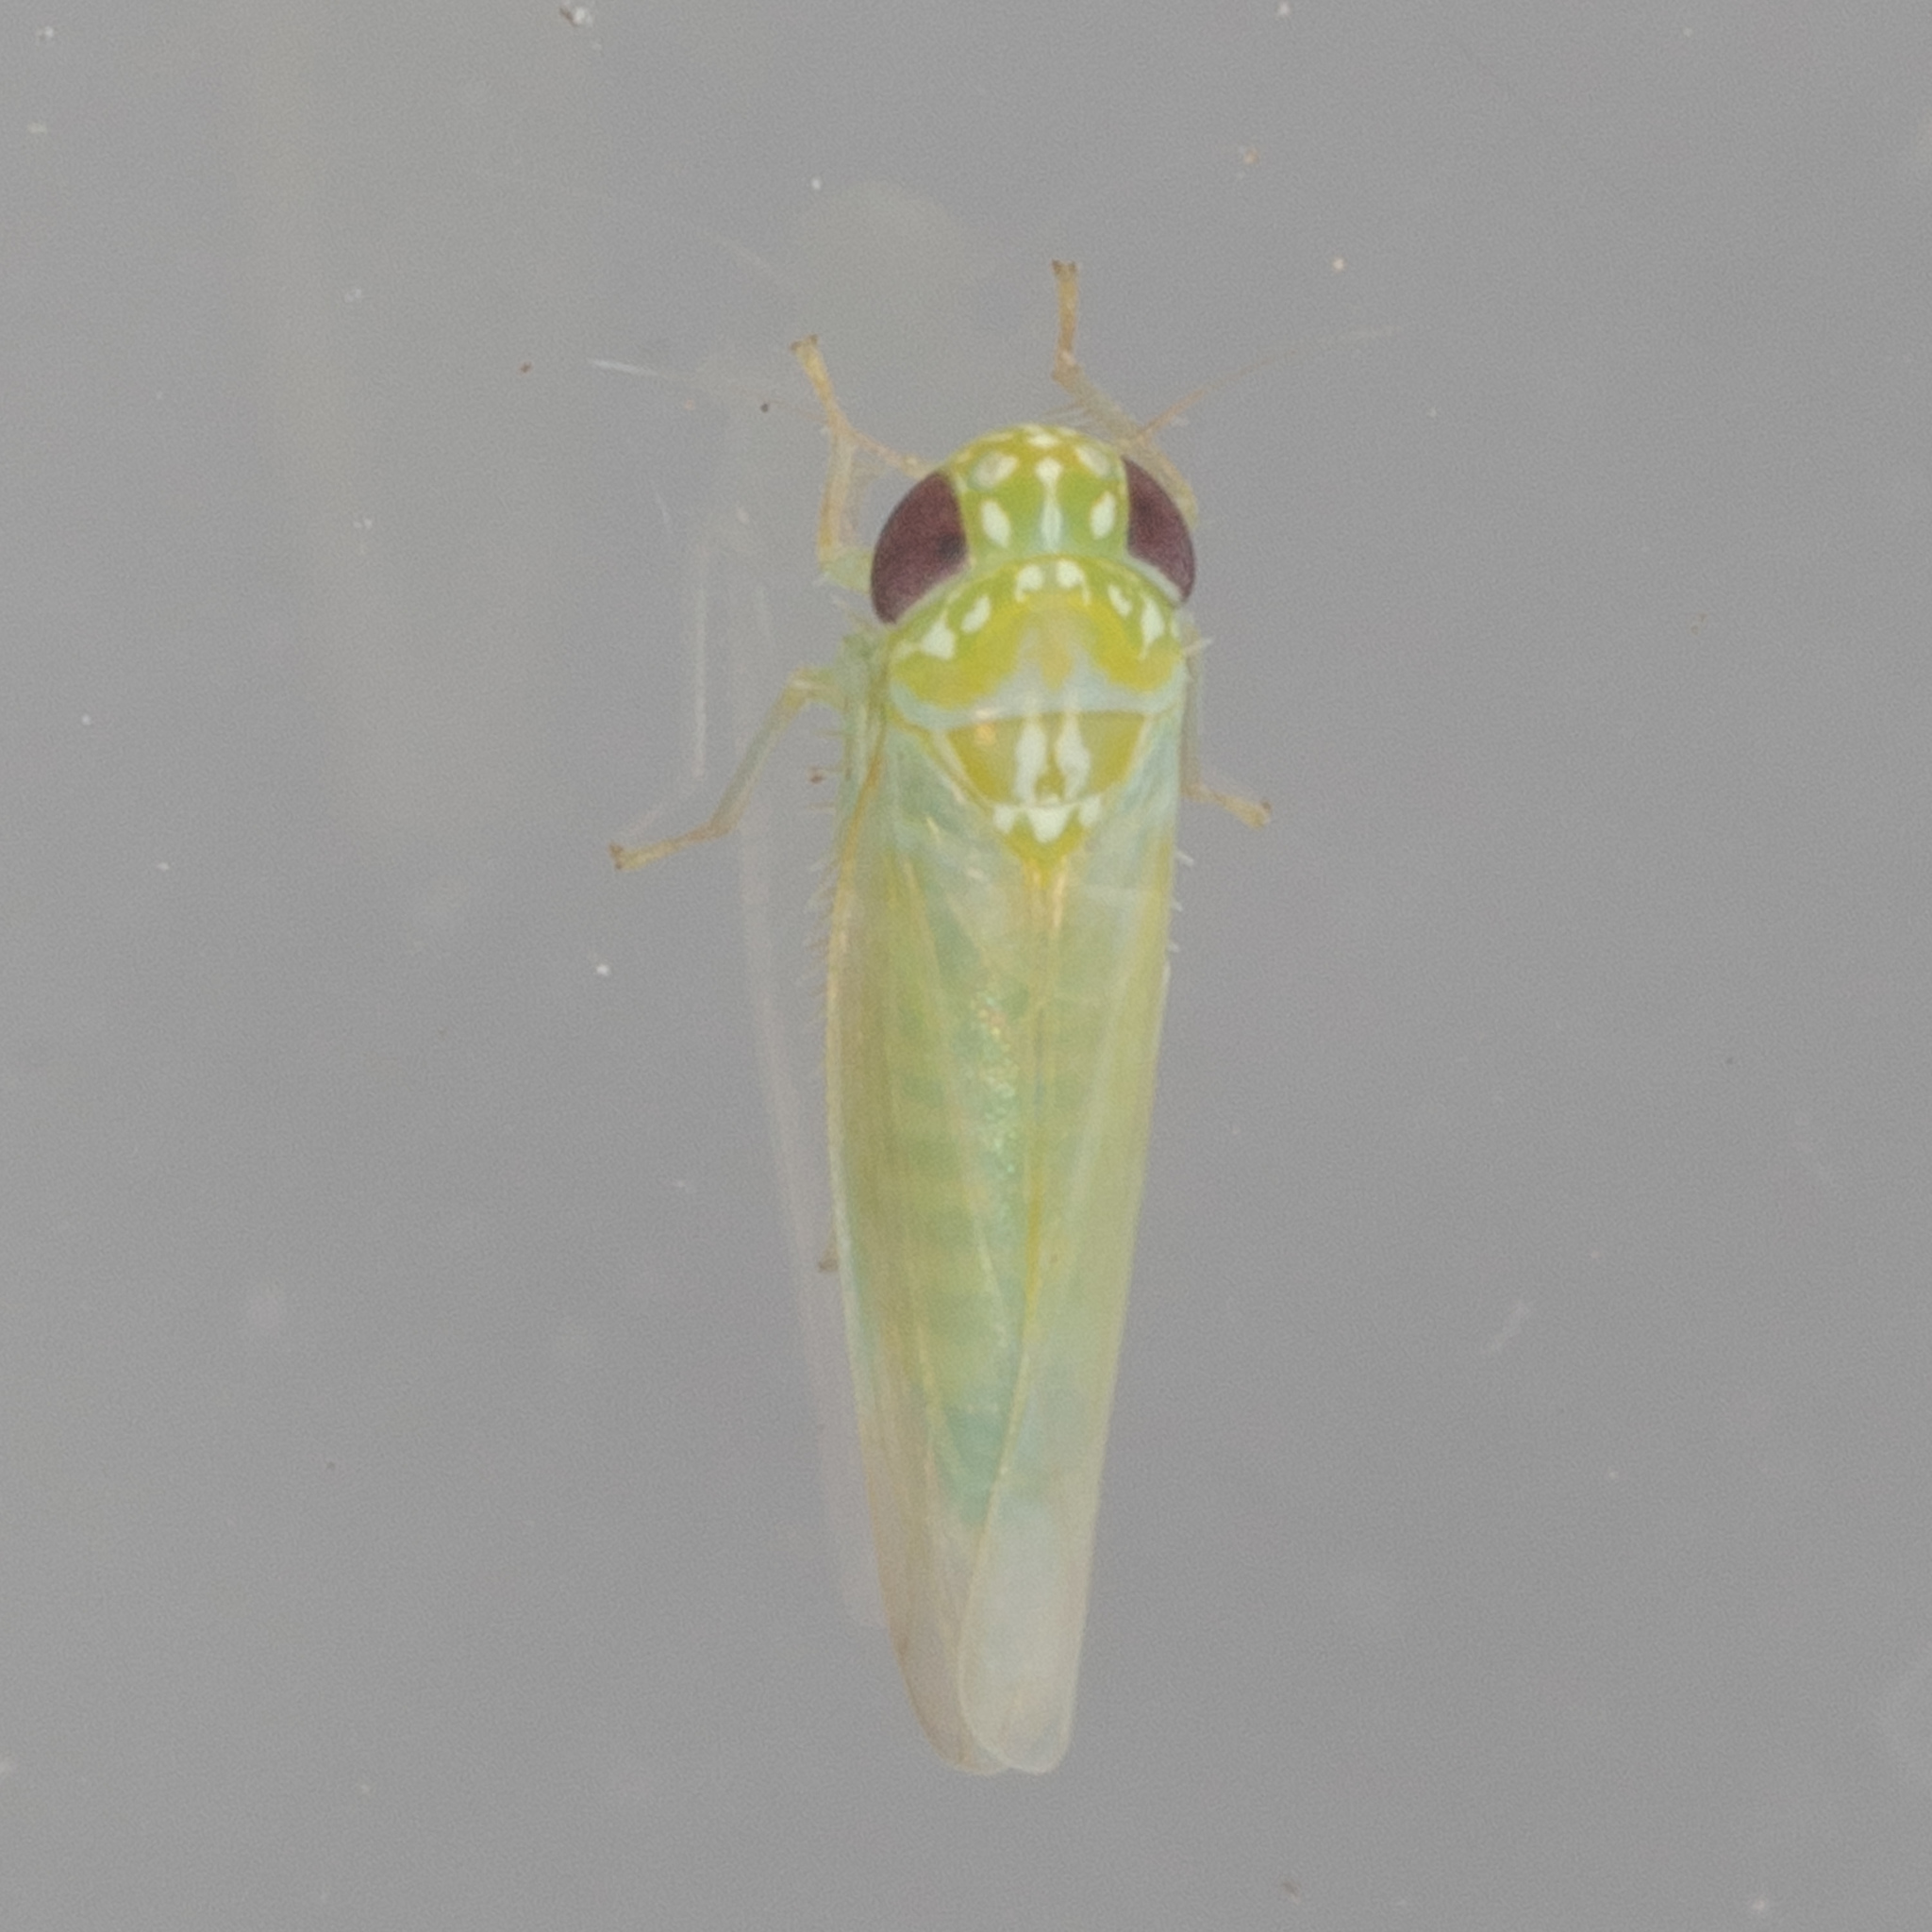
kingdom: Animalia
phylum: Arthropoda
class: Insecta
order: Hemiptera
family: Cicadellidae
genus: Empoasca
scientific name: Empoasca fabae
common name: Potato leafhopper
